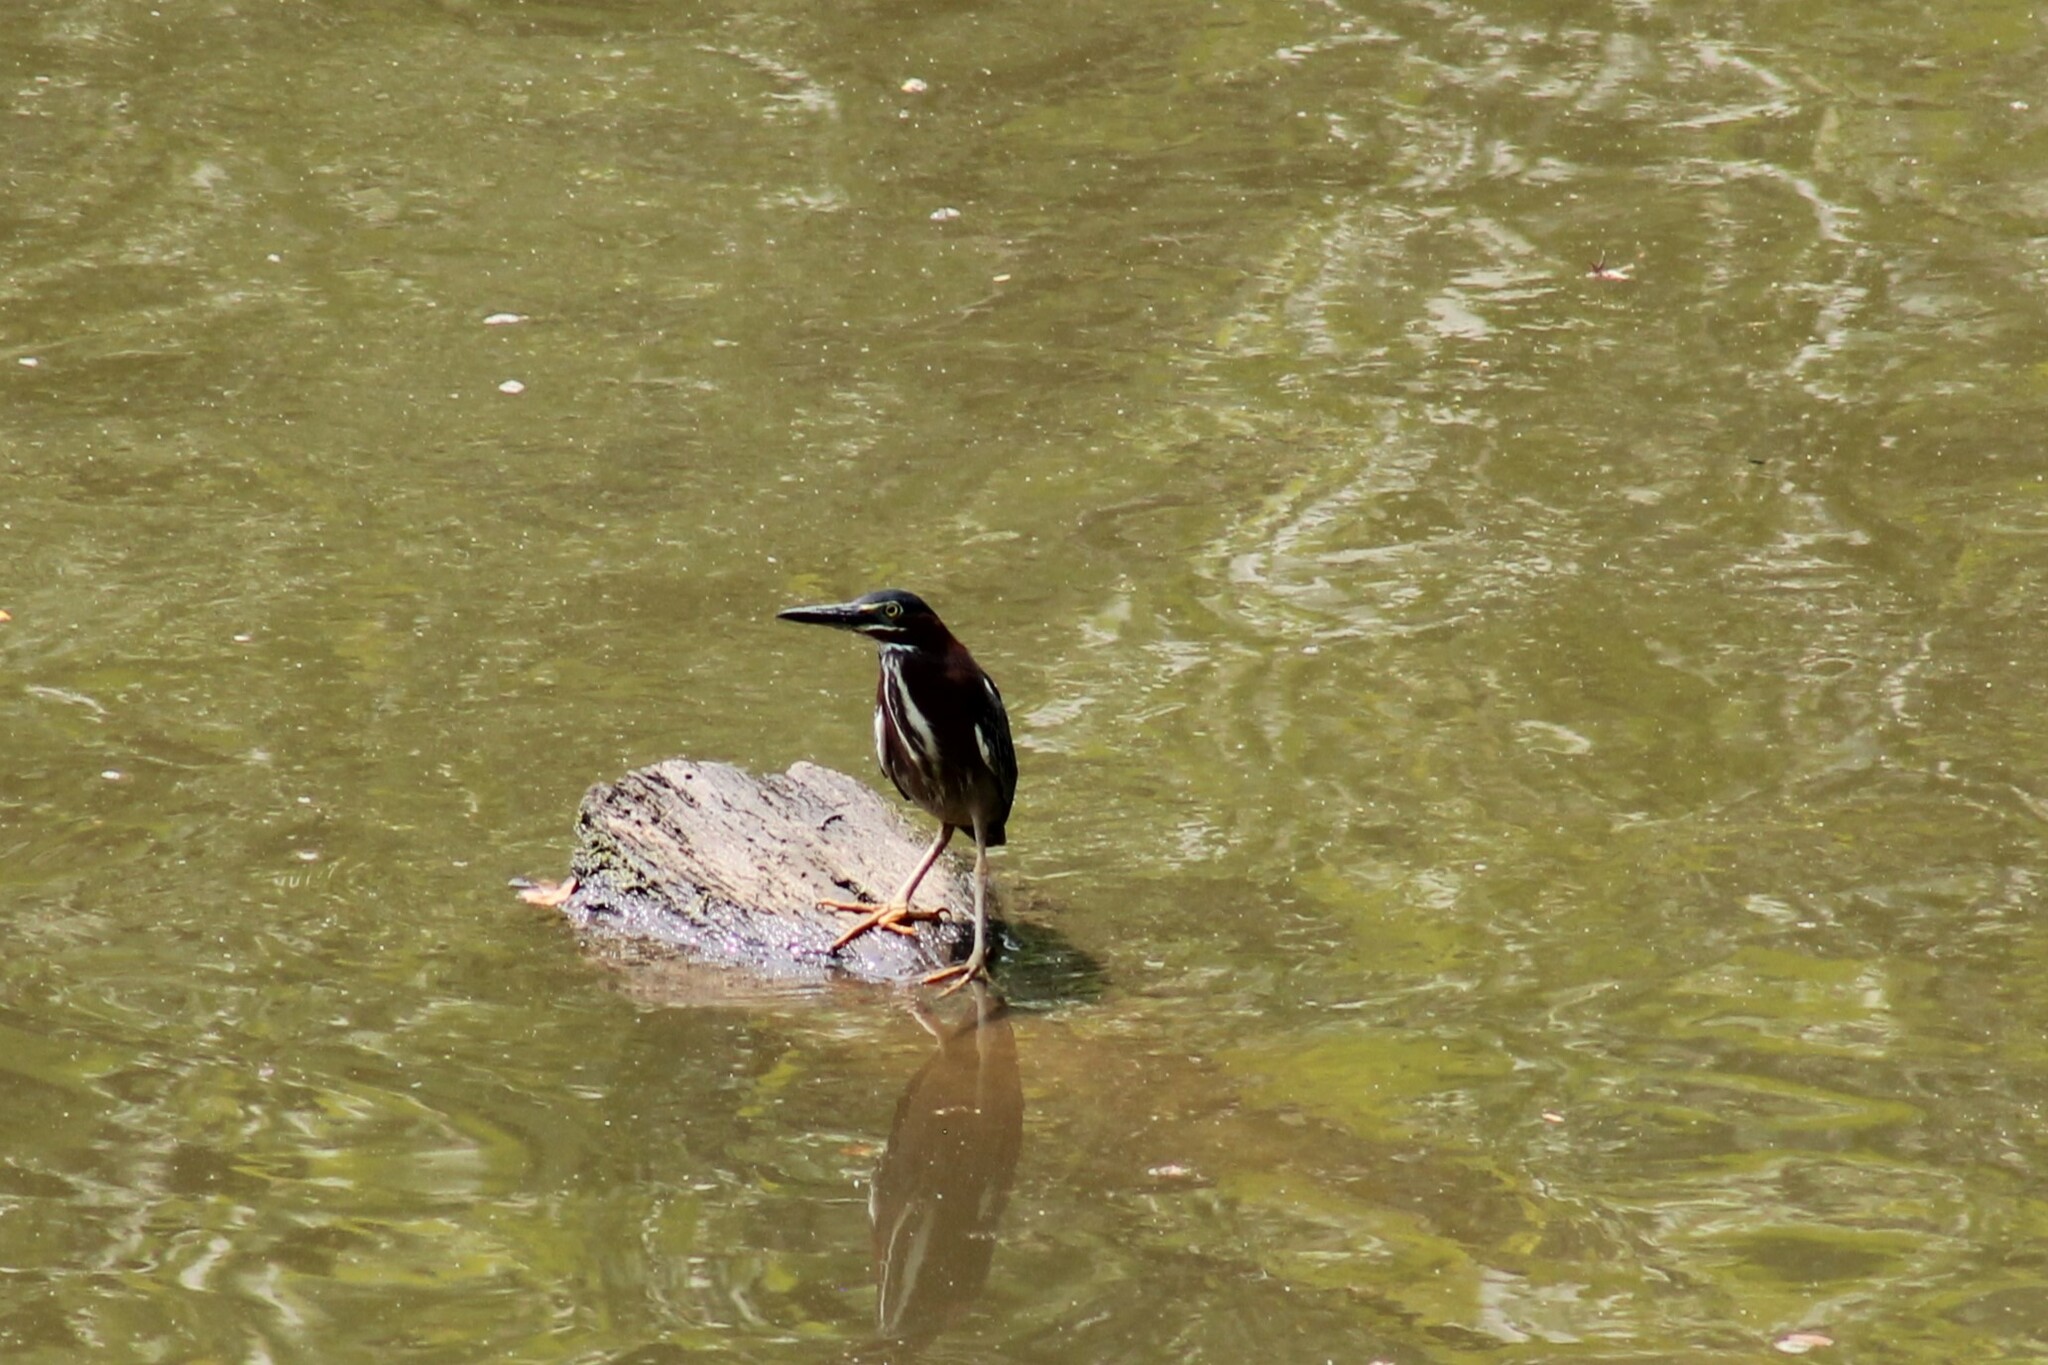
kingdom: Animalia
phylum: Chordata
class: Aves
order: Pelecaniformes
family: Ardeidae
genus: Butorides
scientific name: Butorides virescens
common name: Green heron
